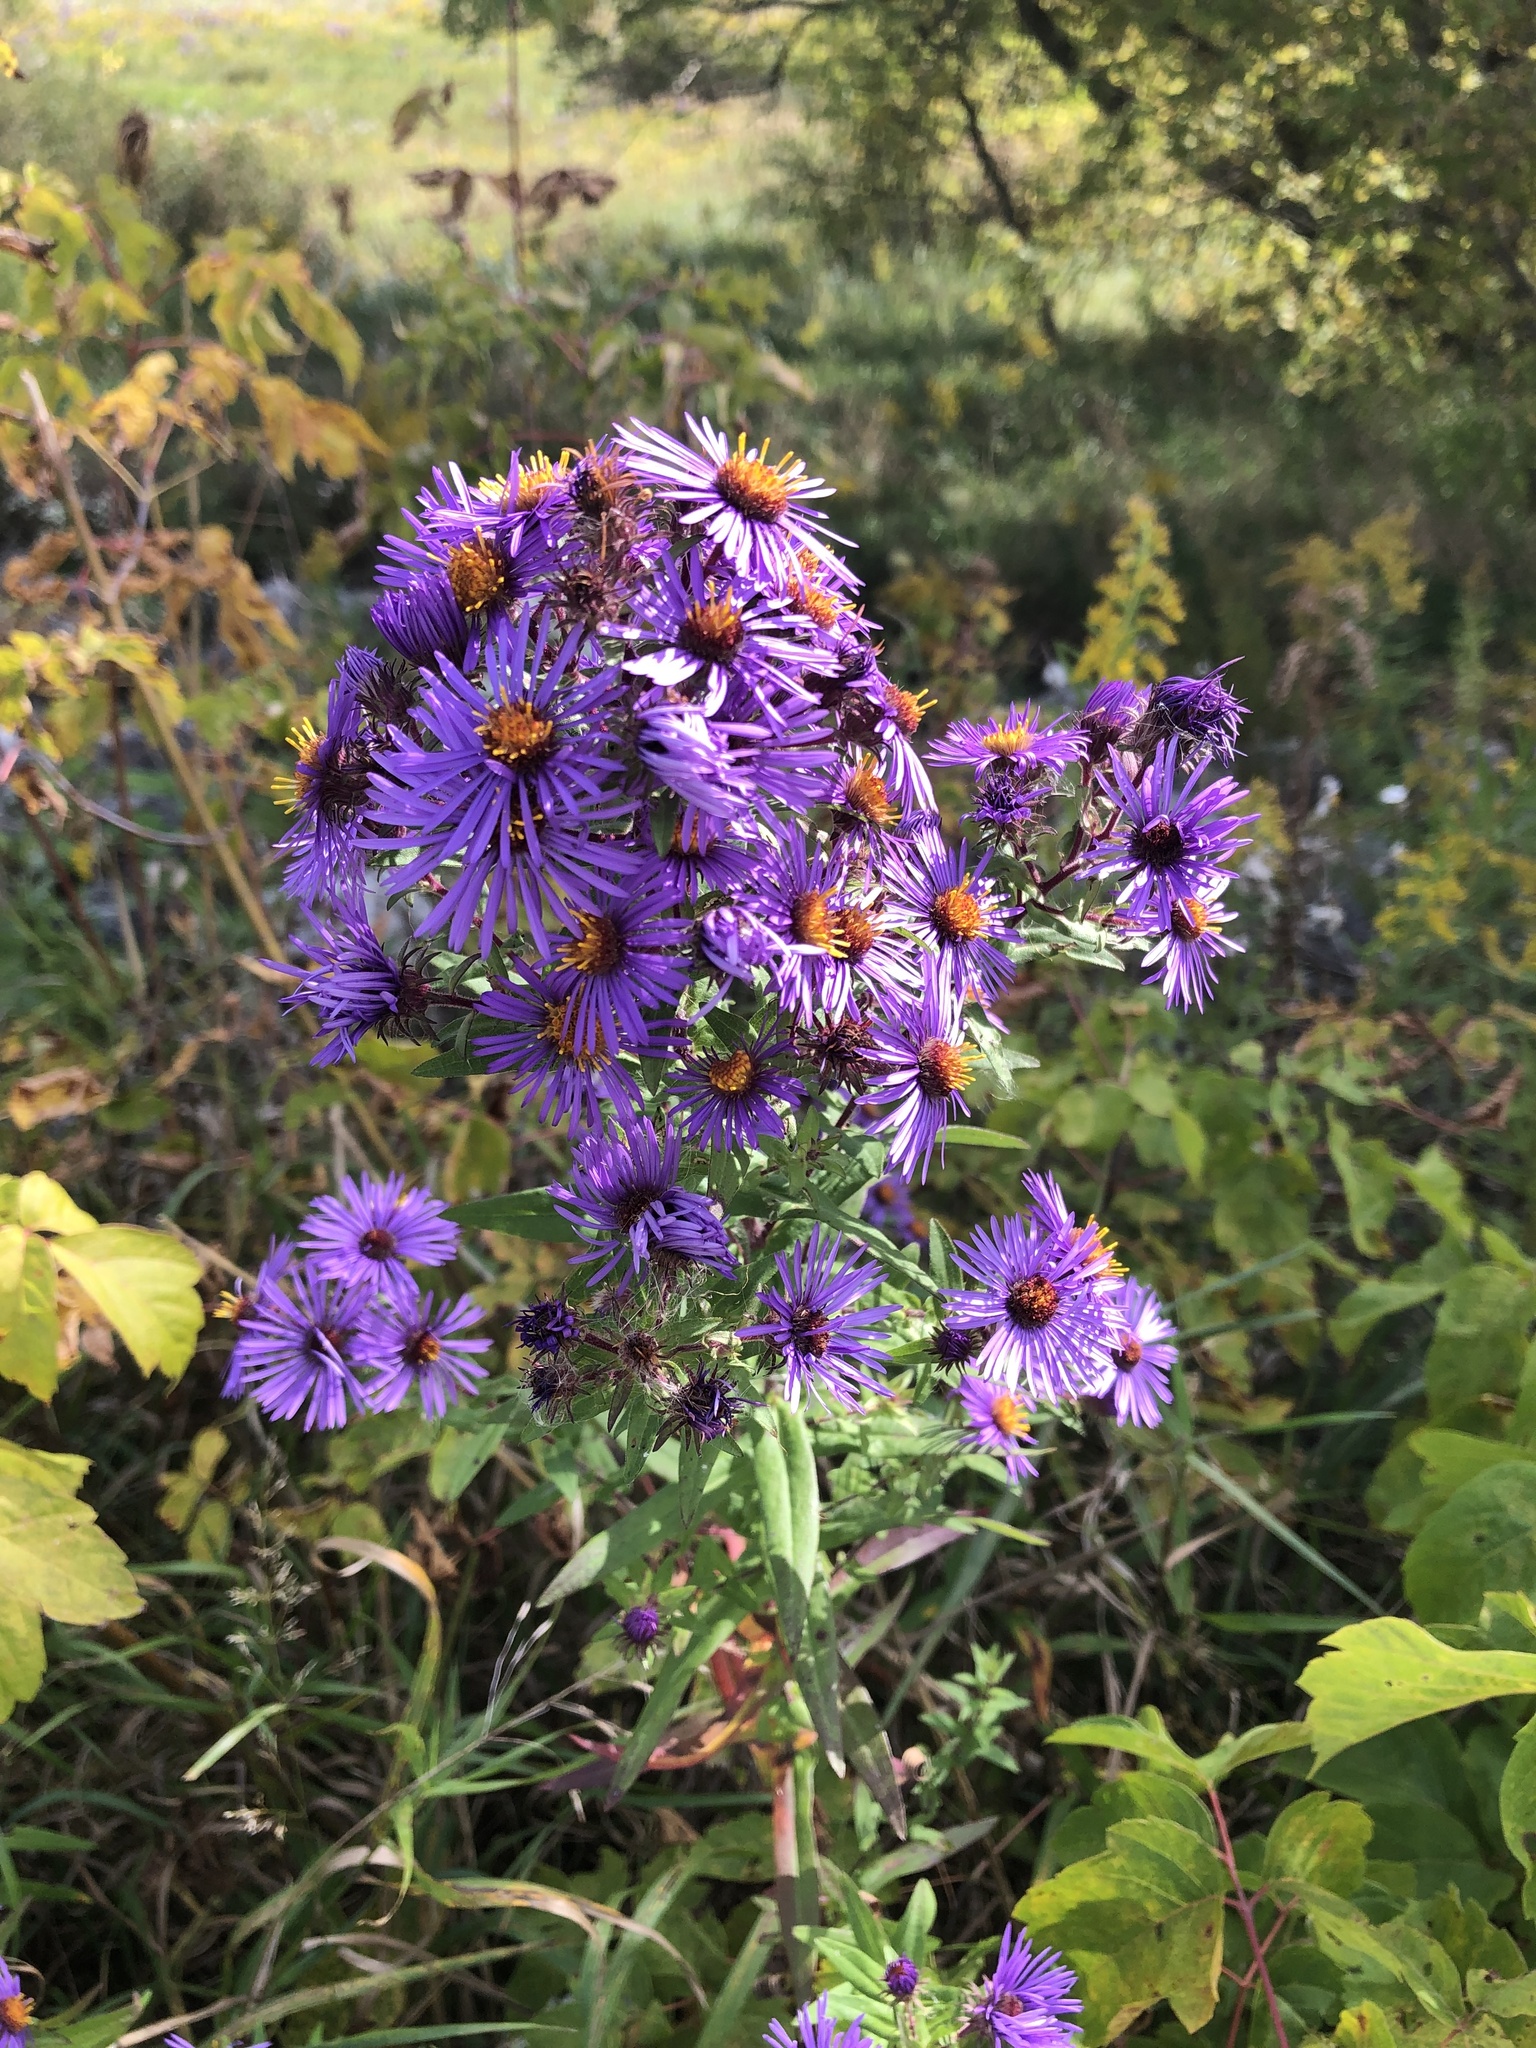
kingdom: Plantae
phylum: Tracheophyta
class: Magnoliopsida
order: Asterales
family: Asteraceae
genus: Symphyotrichum
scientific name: Symphyotrichum novae-angliae
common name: Michaelmas daisy
